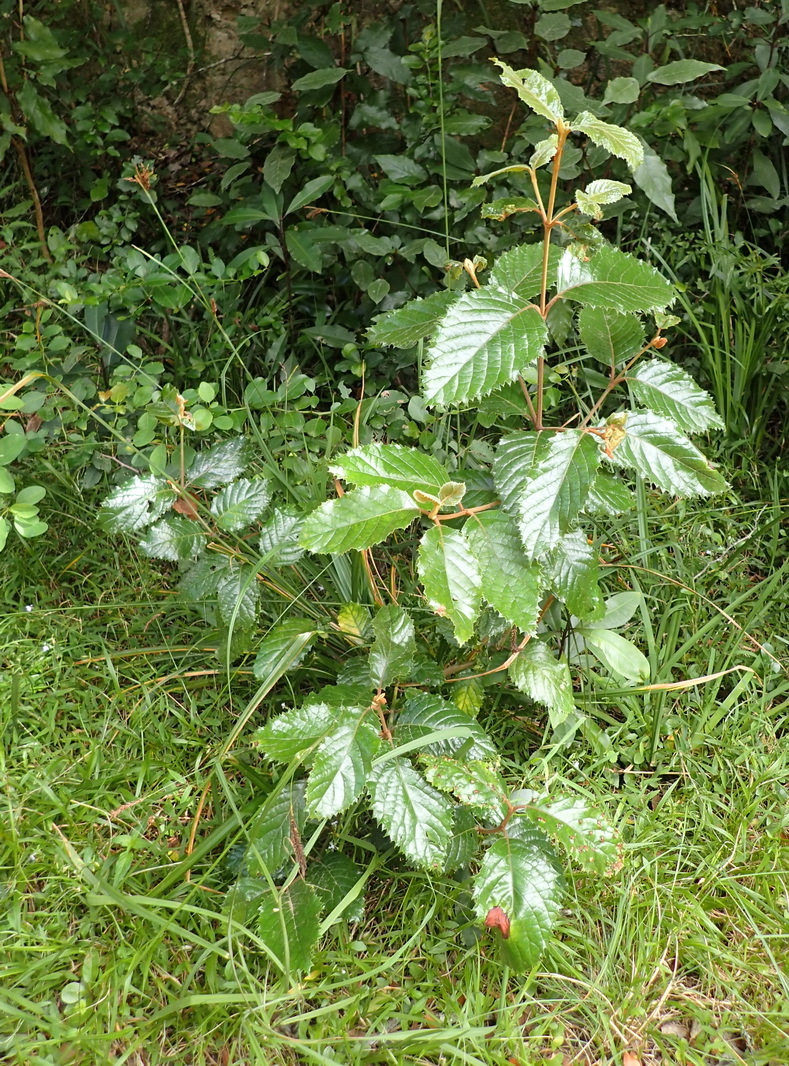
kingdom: Plantae
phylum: Tracheophyta
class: Magnoliopsida
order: Cornales
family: Curtisiaceae
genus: Curtisia
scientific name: Curtisia dentata
